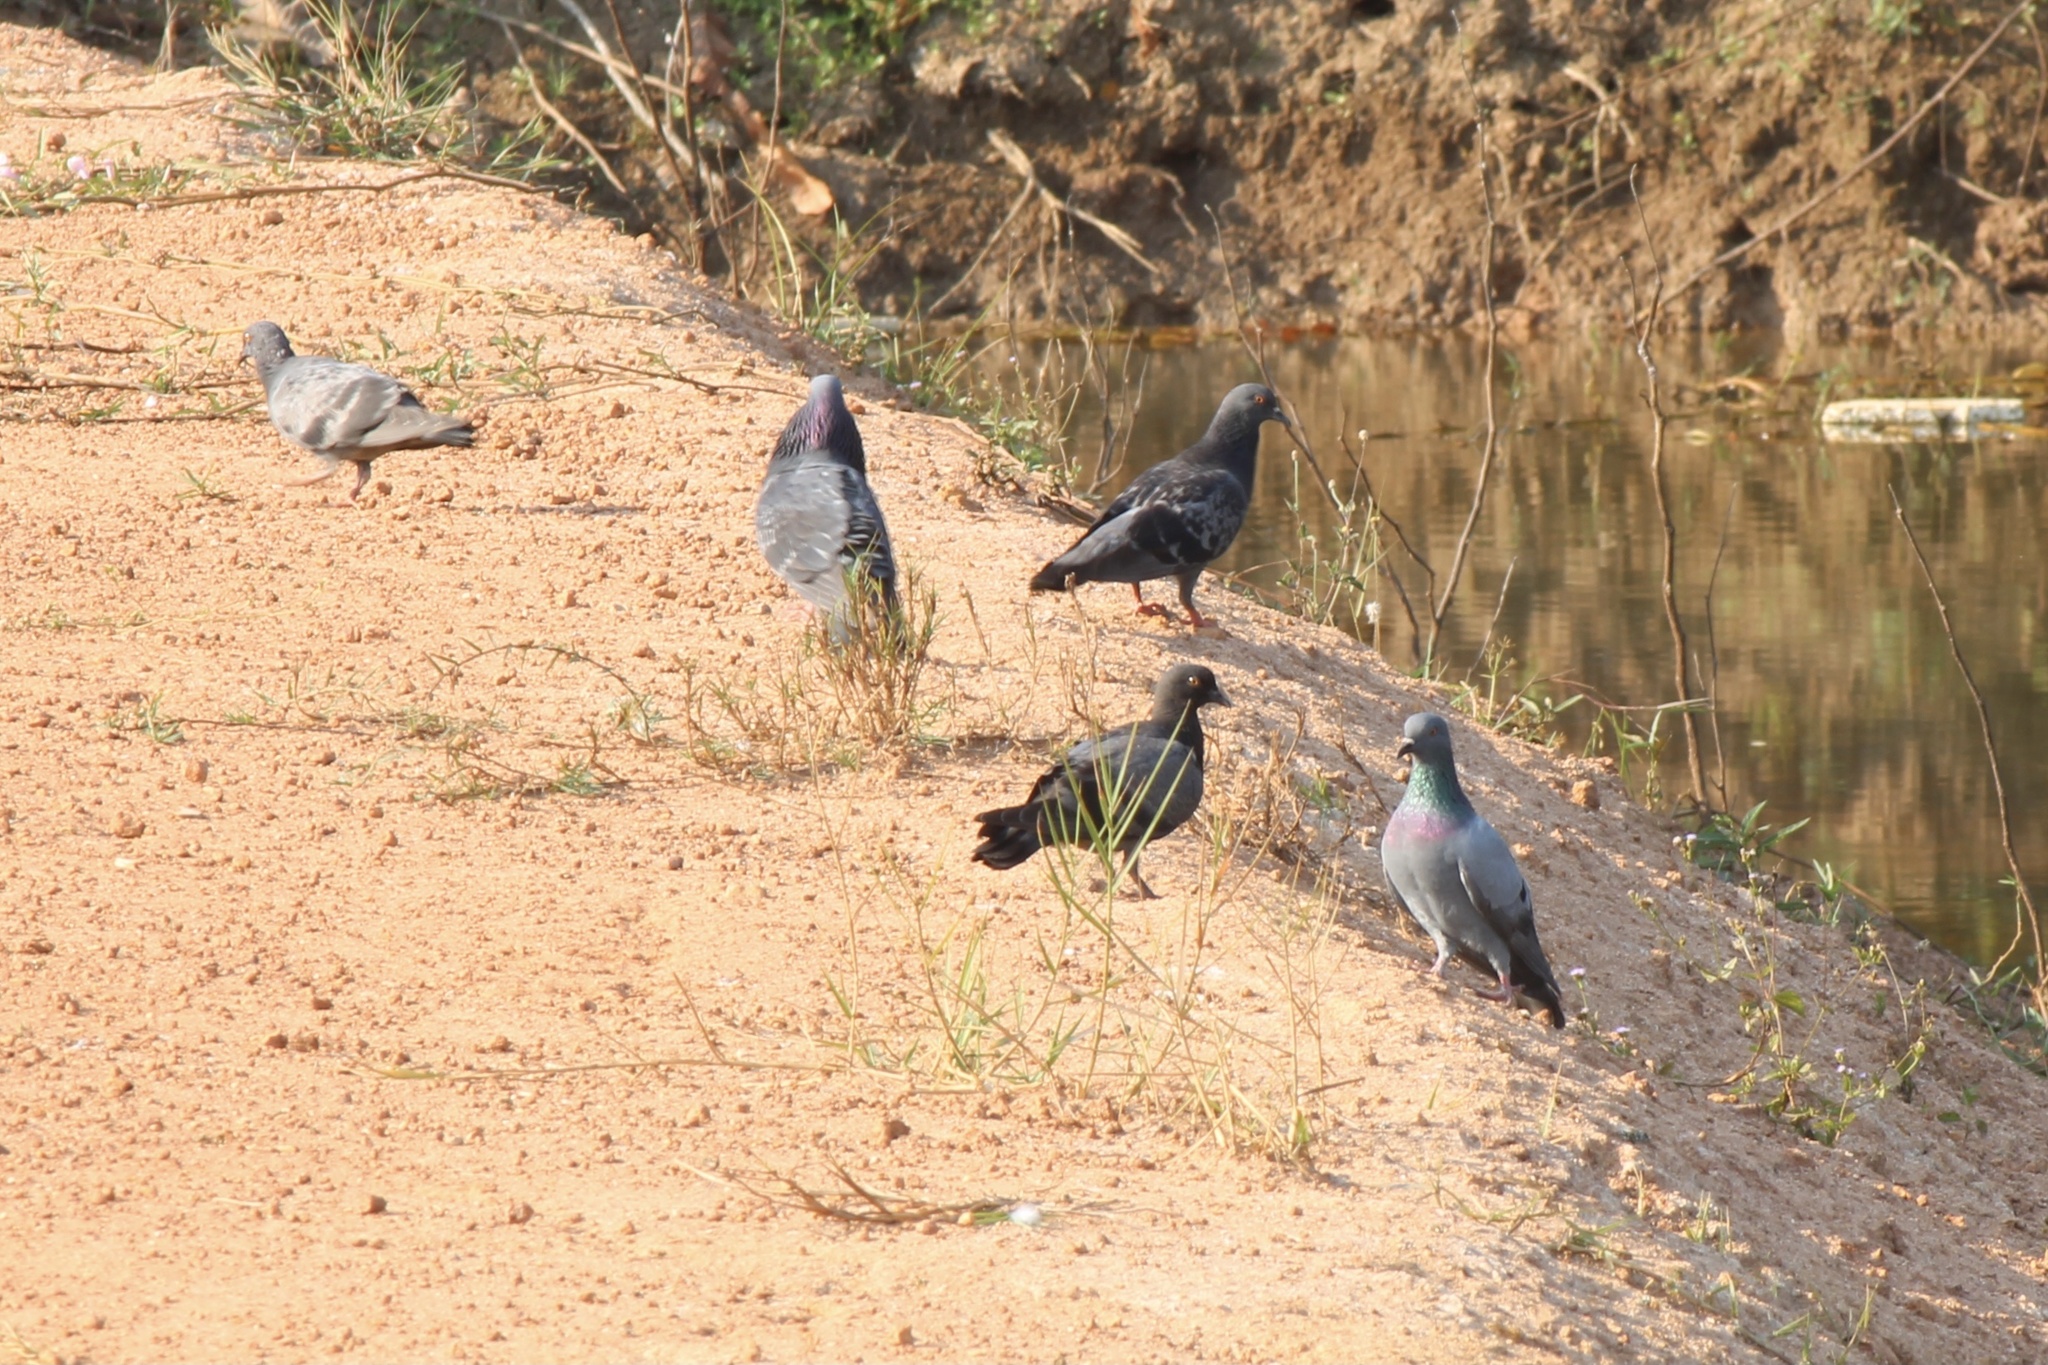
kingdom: Animalia
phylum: Chordata
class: Aves
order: Columbiformes
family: Columbidae
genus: Columba
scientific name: Columba livia
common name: Rock pigeon
